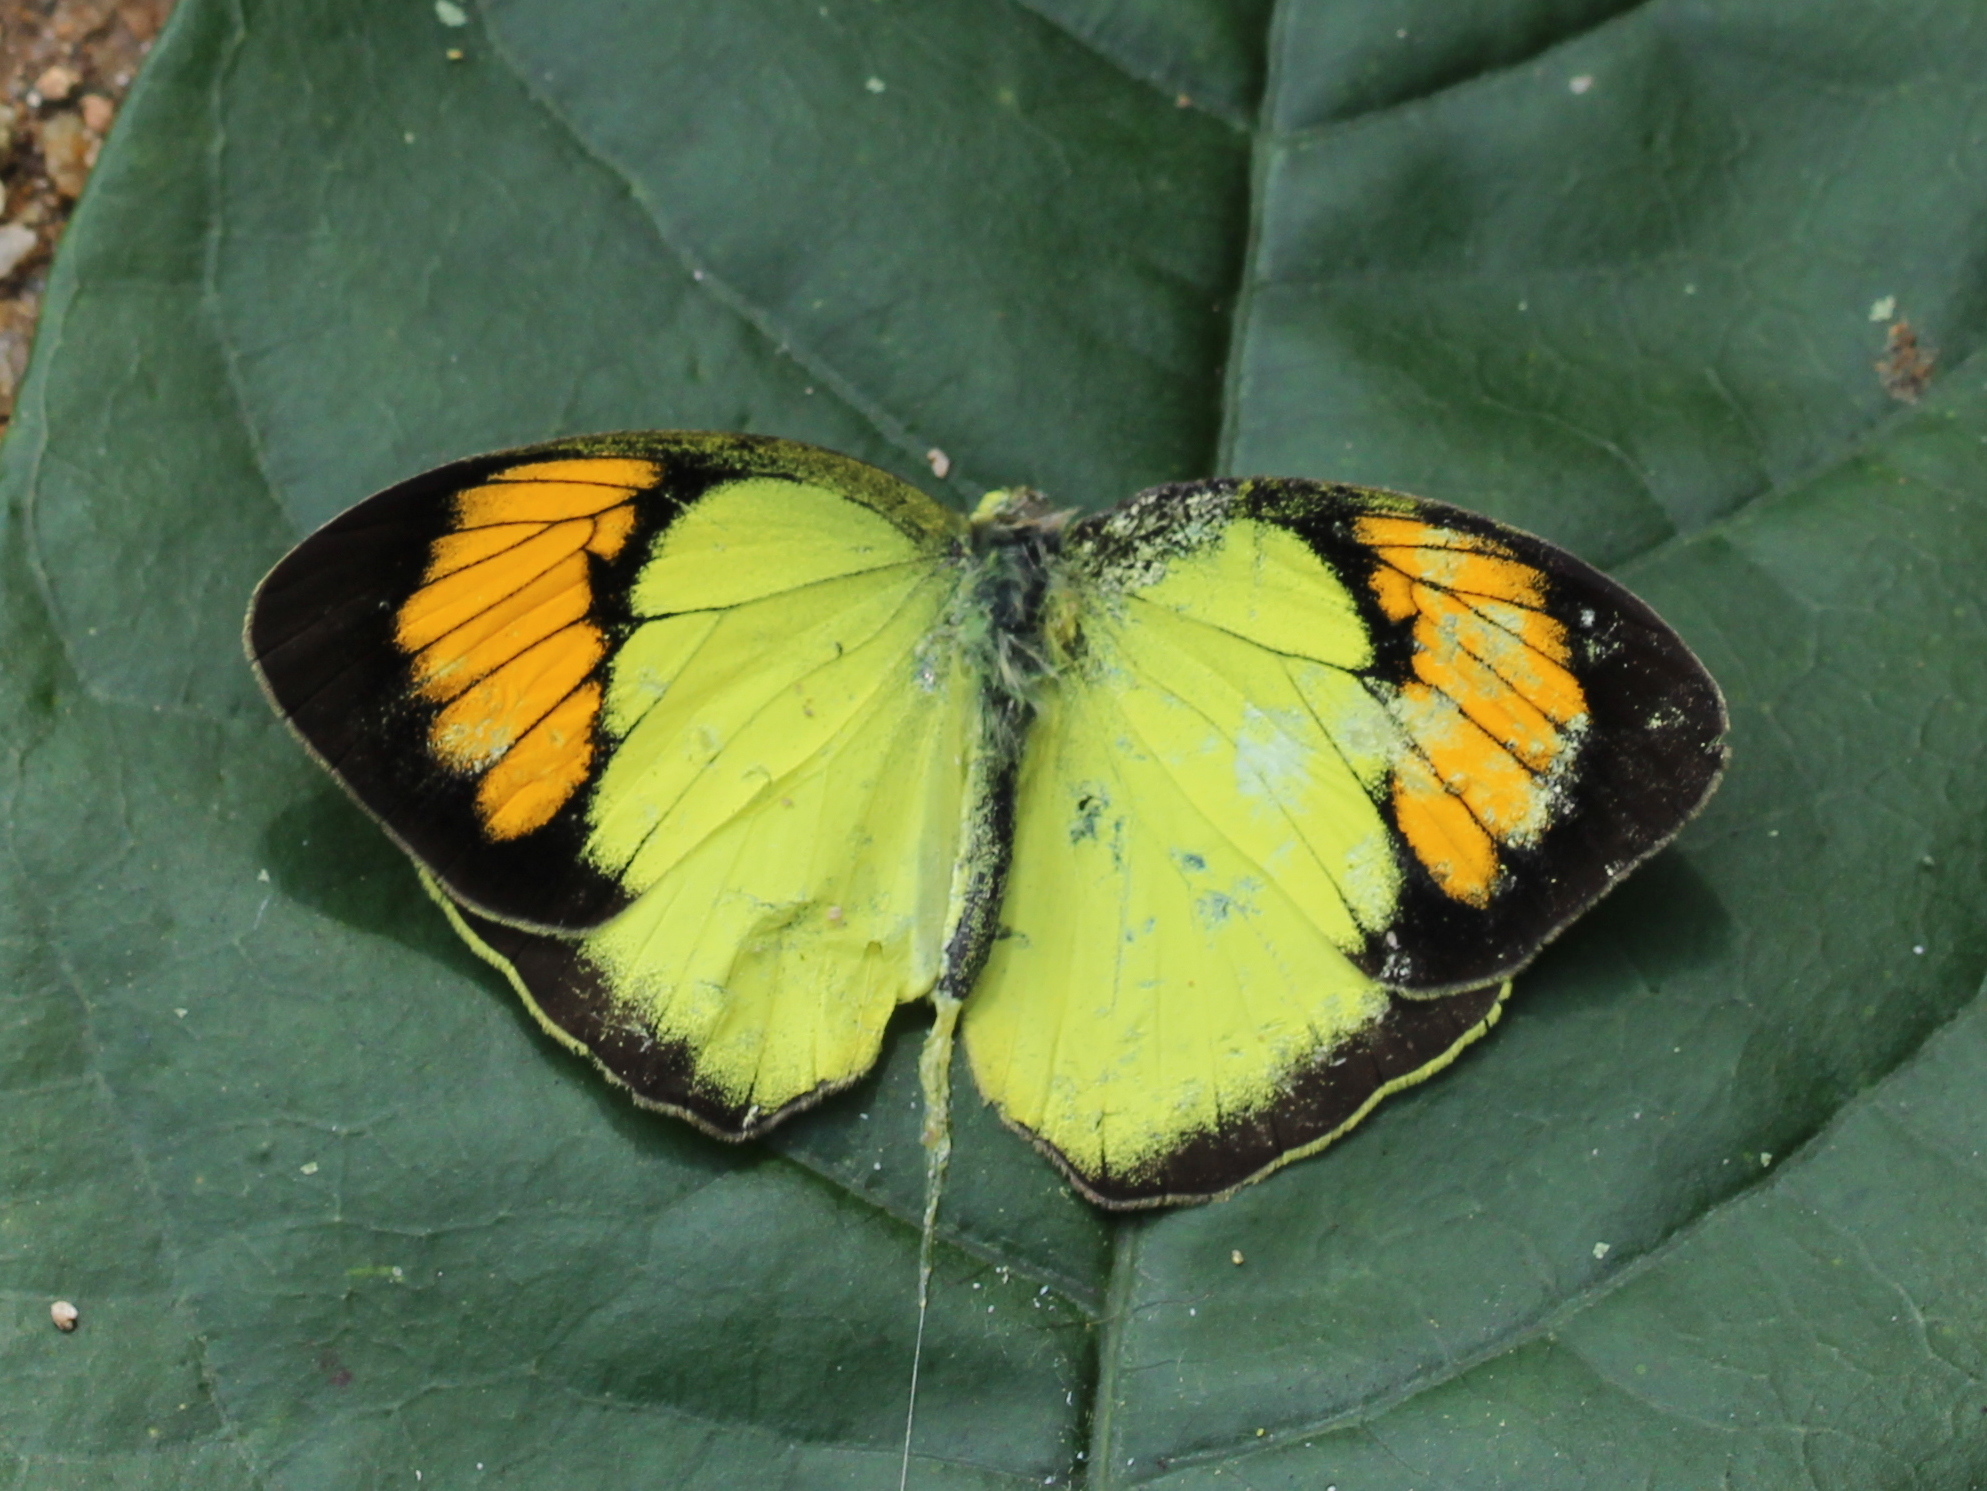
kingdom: Animalia
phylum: Arthropoda
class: Insecta
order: Lepidoptera
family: Pieridae
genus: Ixias
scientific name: Ixias pyrene
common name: Yellow orange tip
